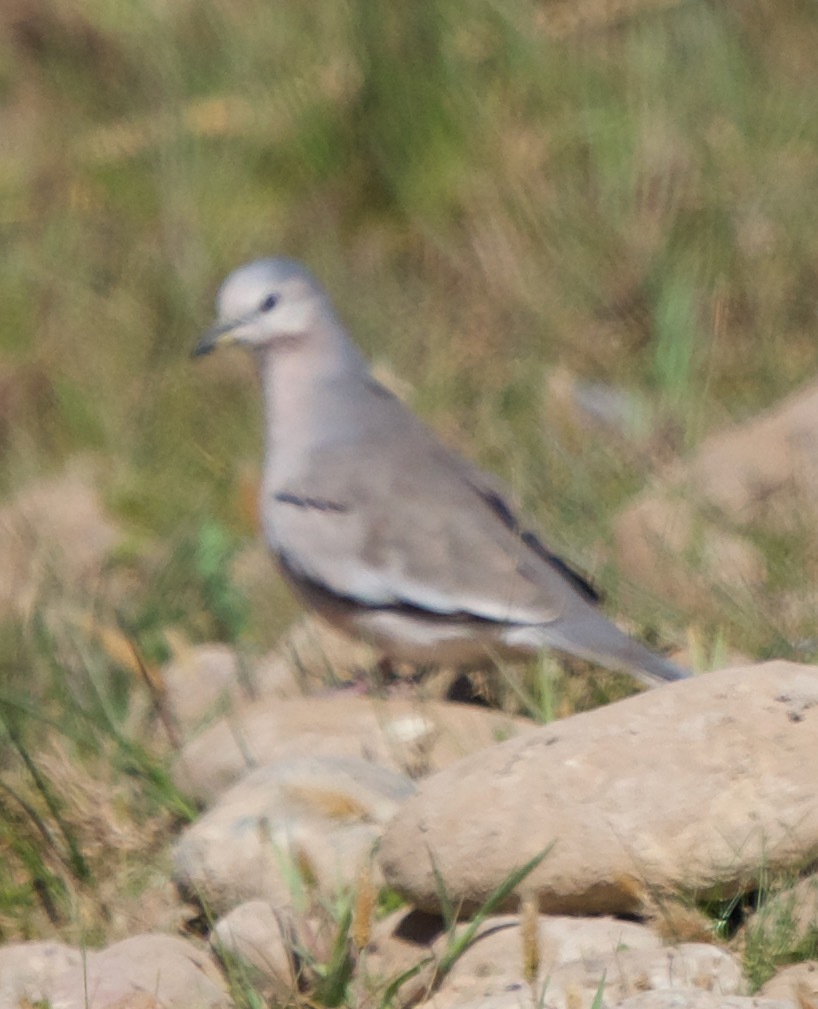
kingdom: Animalia
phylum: Chordata
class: Aves
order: Columbiformes
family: Columbidae
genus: Columbina
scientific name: Columbina picui
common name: Picui ground dove
